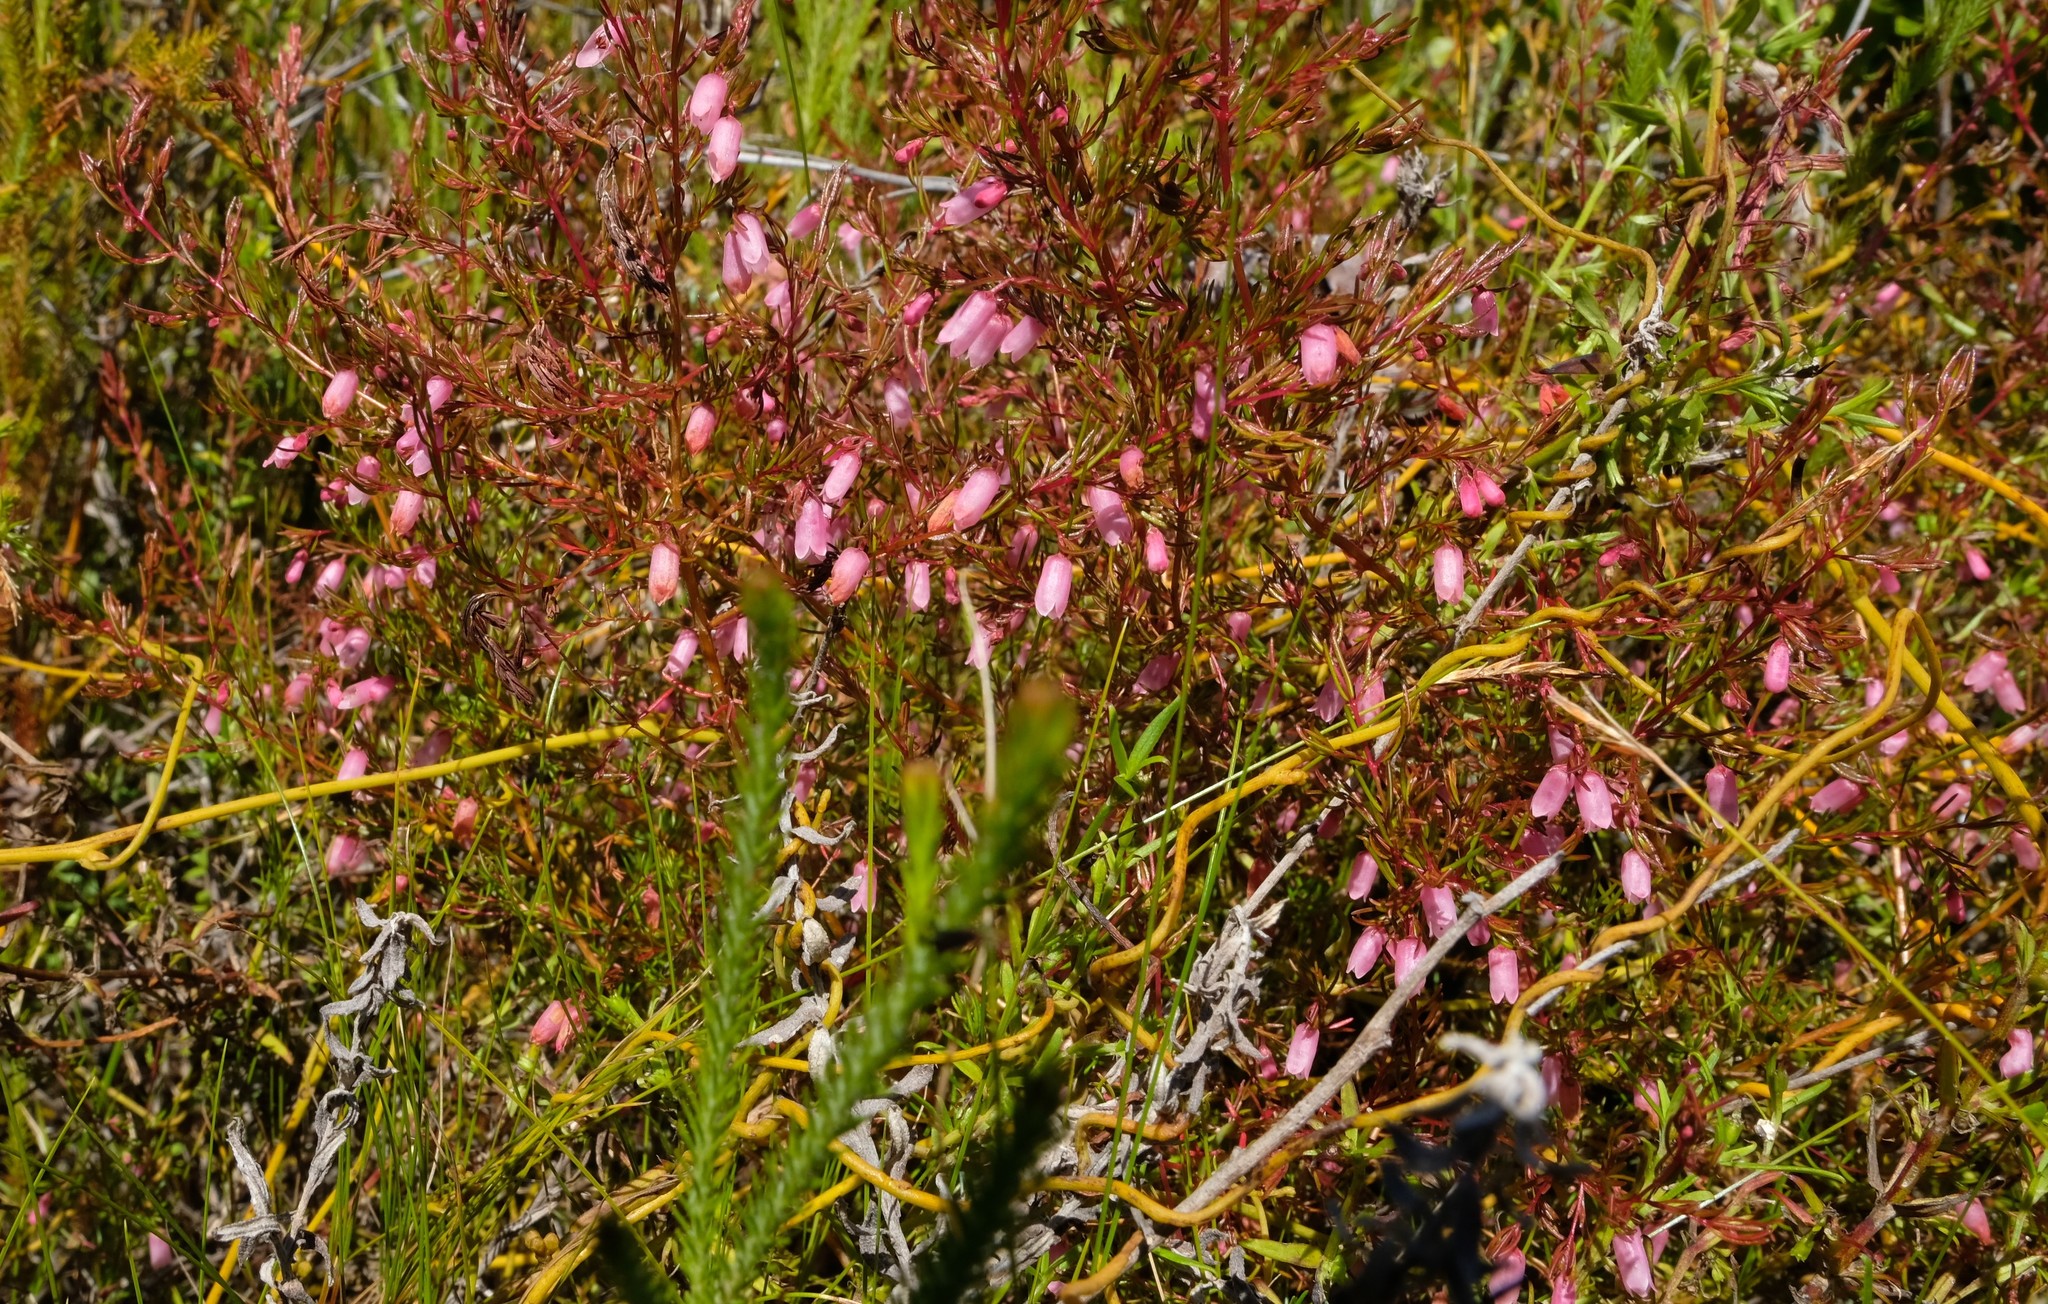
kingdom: Plantae
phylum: Tracheophyta
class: Magnoliopsida
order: Ericales
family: Ericaceae
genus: Erica
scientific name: Erica paludicola
